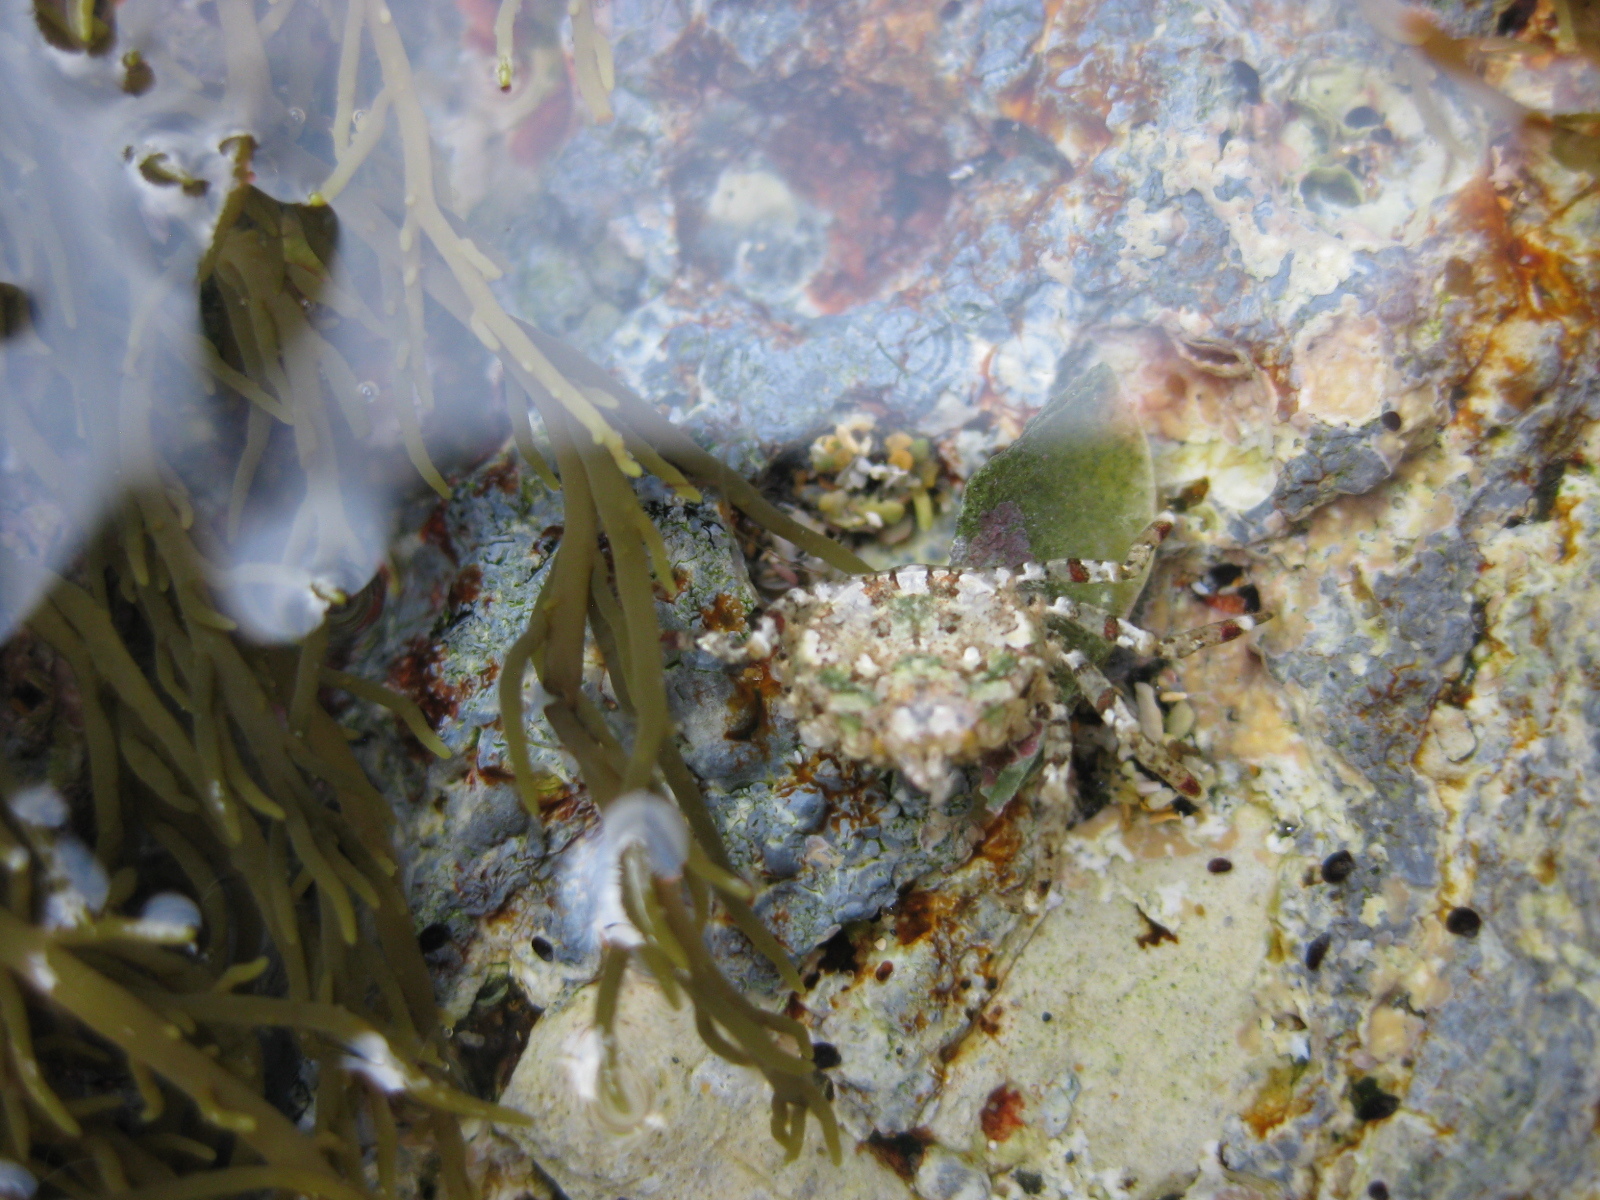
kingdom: Animalia
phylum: Arthropoda
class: Malacostraca
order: Decapoda
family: Hymenosomatidae
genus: Halicarcinus
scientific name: Halicarcinus cookii
